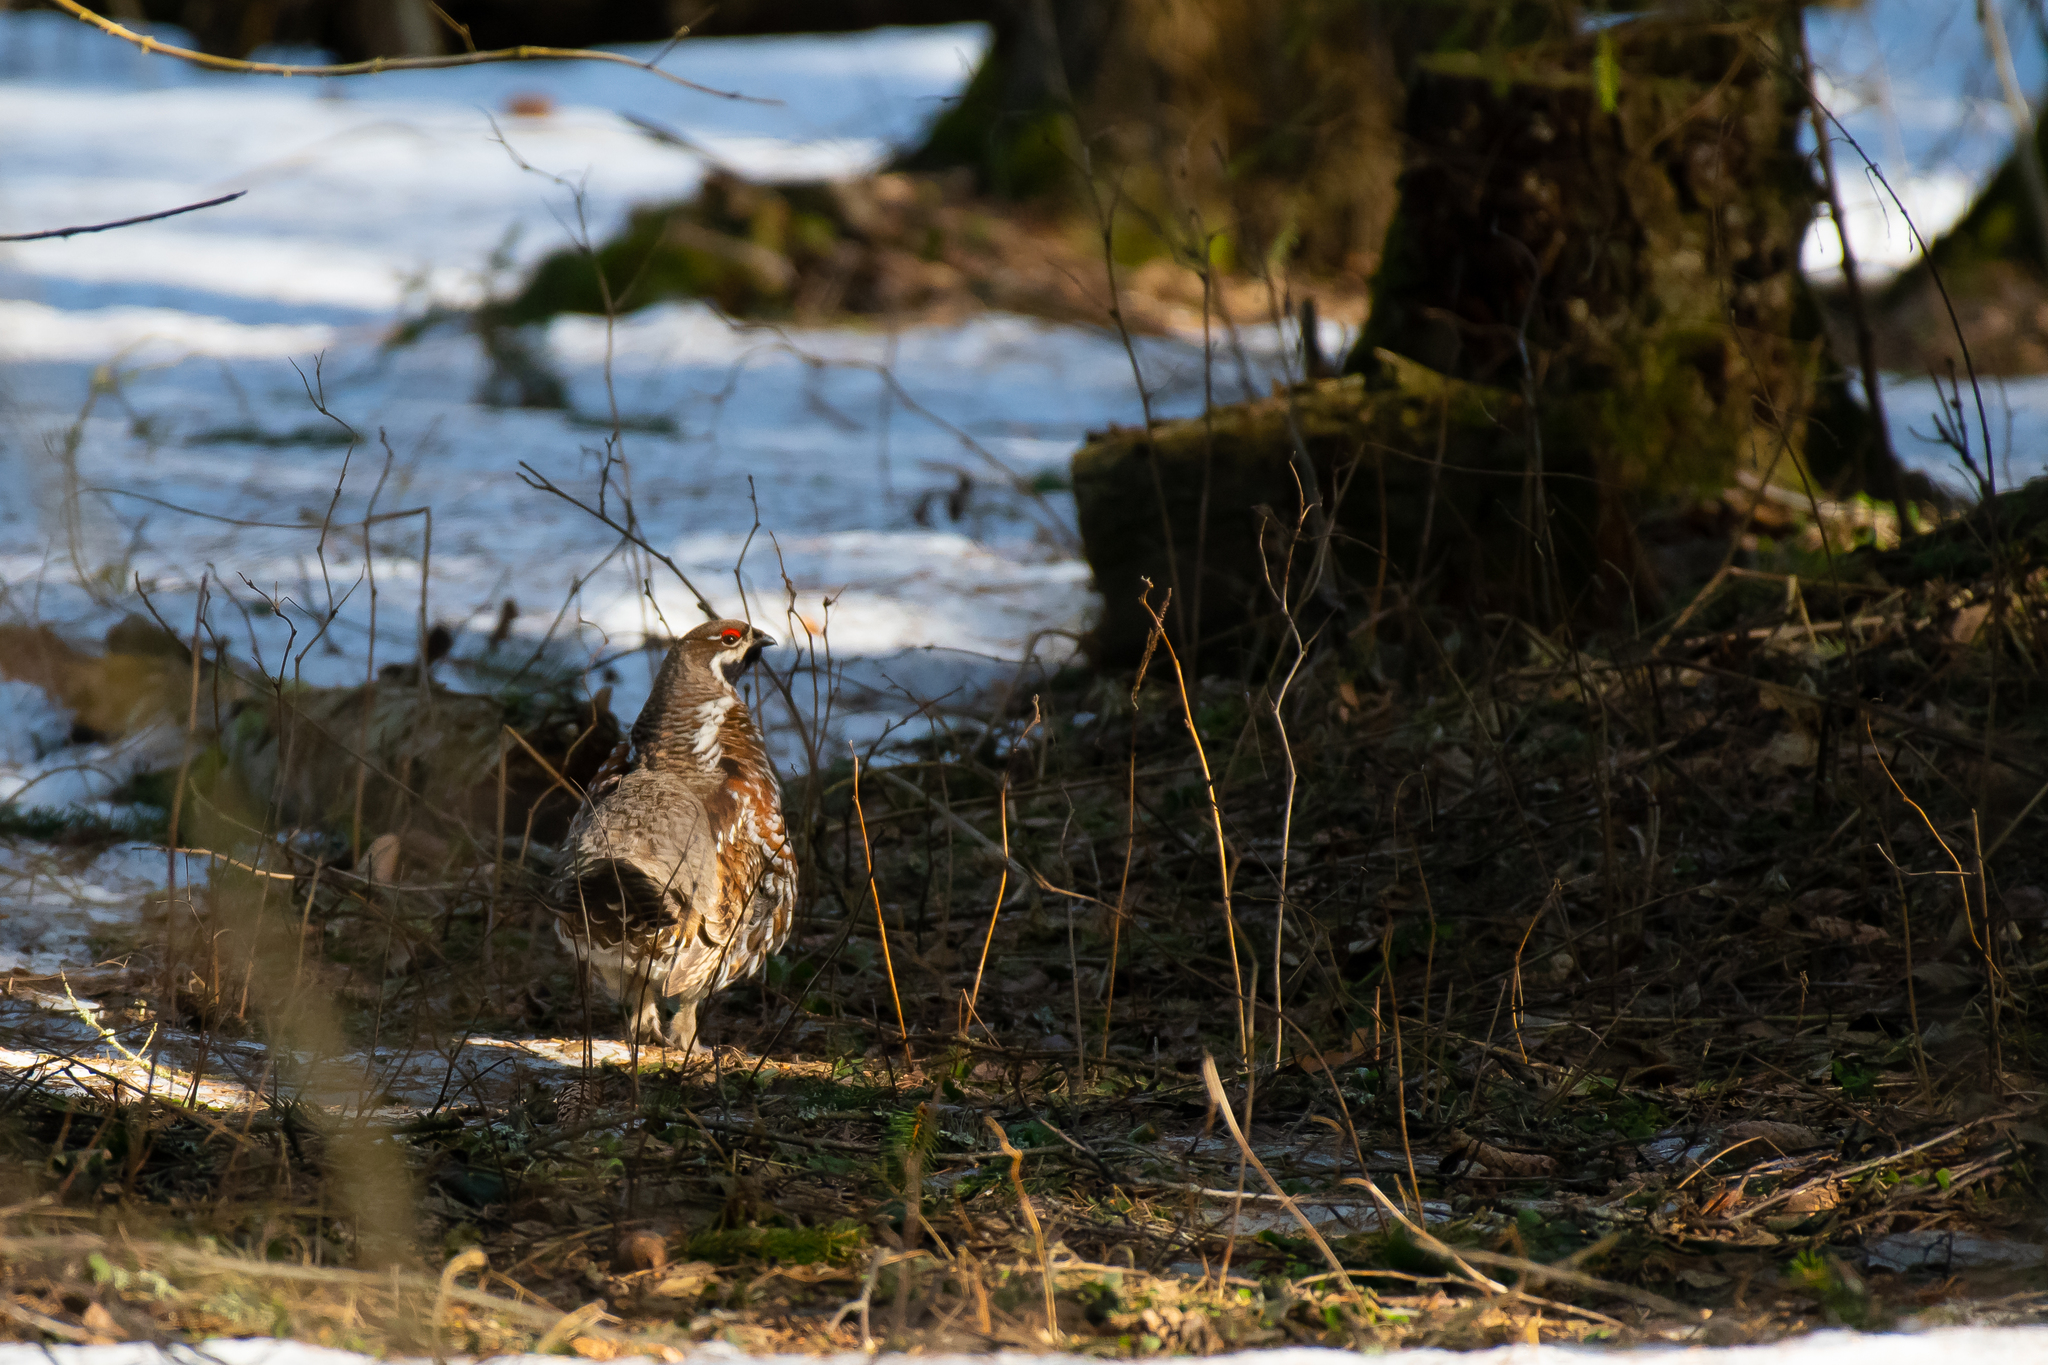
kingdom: Animalia
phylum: Chordata
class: Aves
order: Galliformes
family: Phasianidae
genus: Tetrastes
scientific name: Tetrastes bonasia
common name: Hazel grouse
